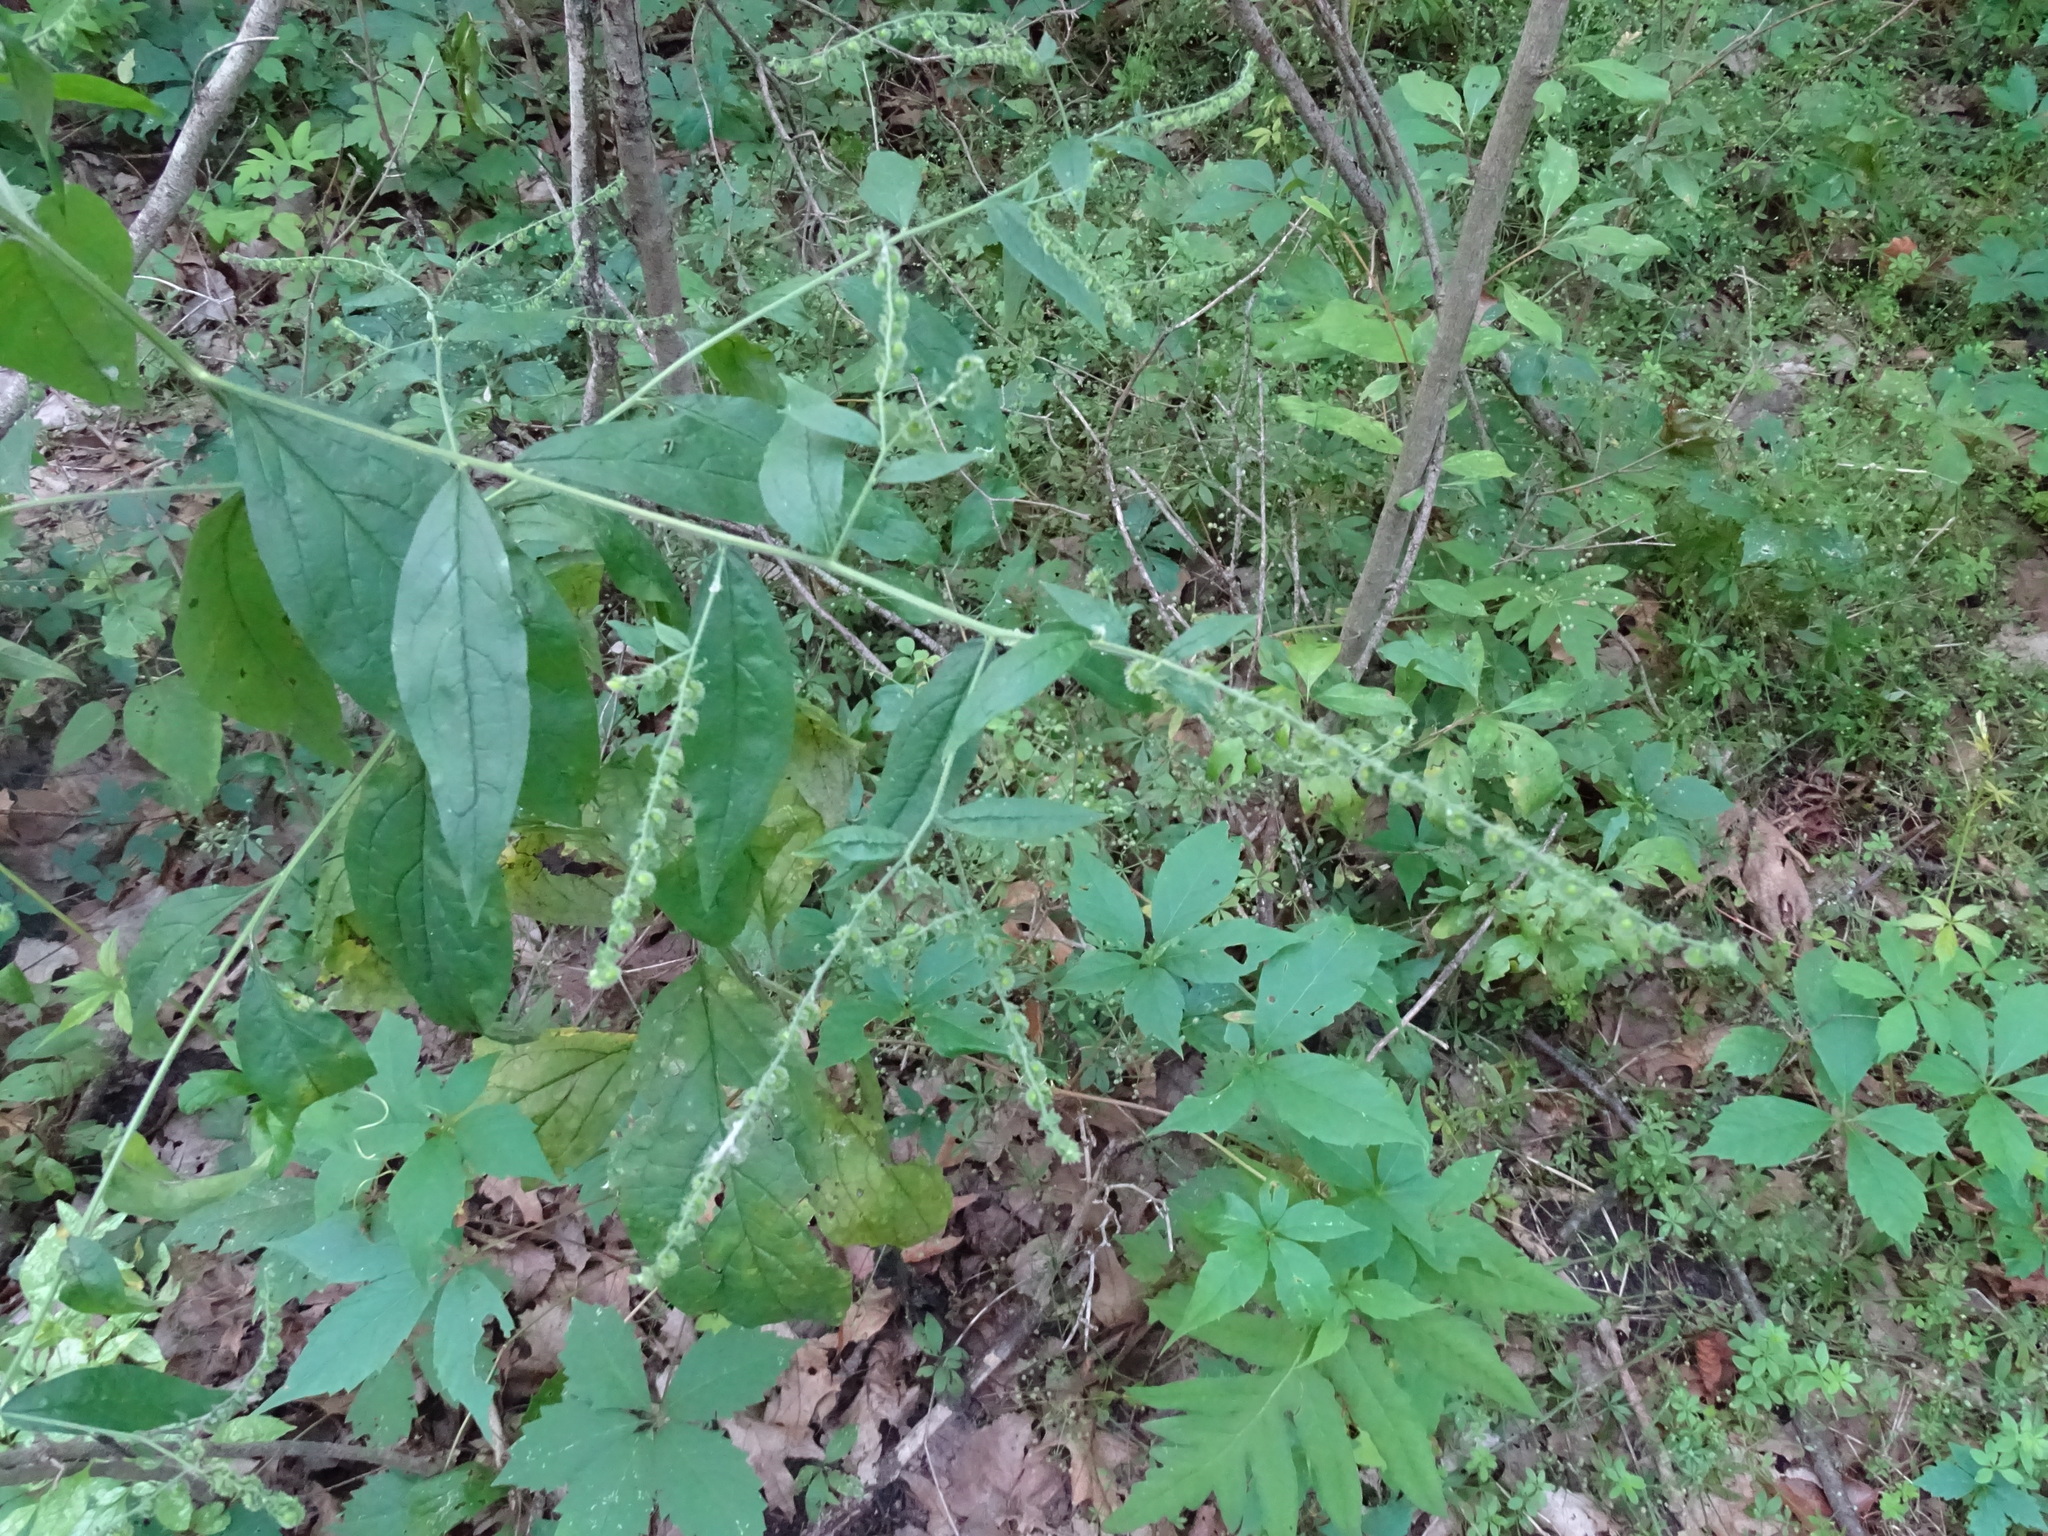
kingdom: Plantae
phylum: Tracheophyta
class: Magnoliopsida
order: Boraginales
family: Boraginaceae
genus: Hackelia
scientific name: Hackelia virginiana
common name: Beggar's-lice
